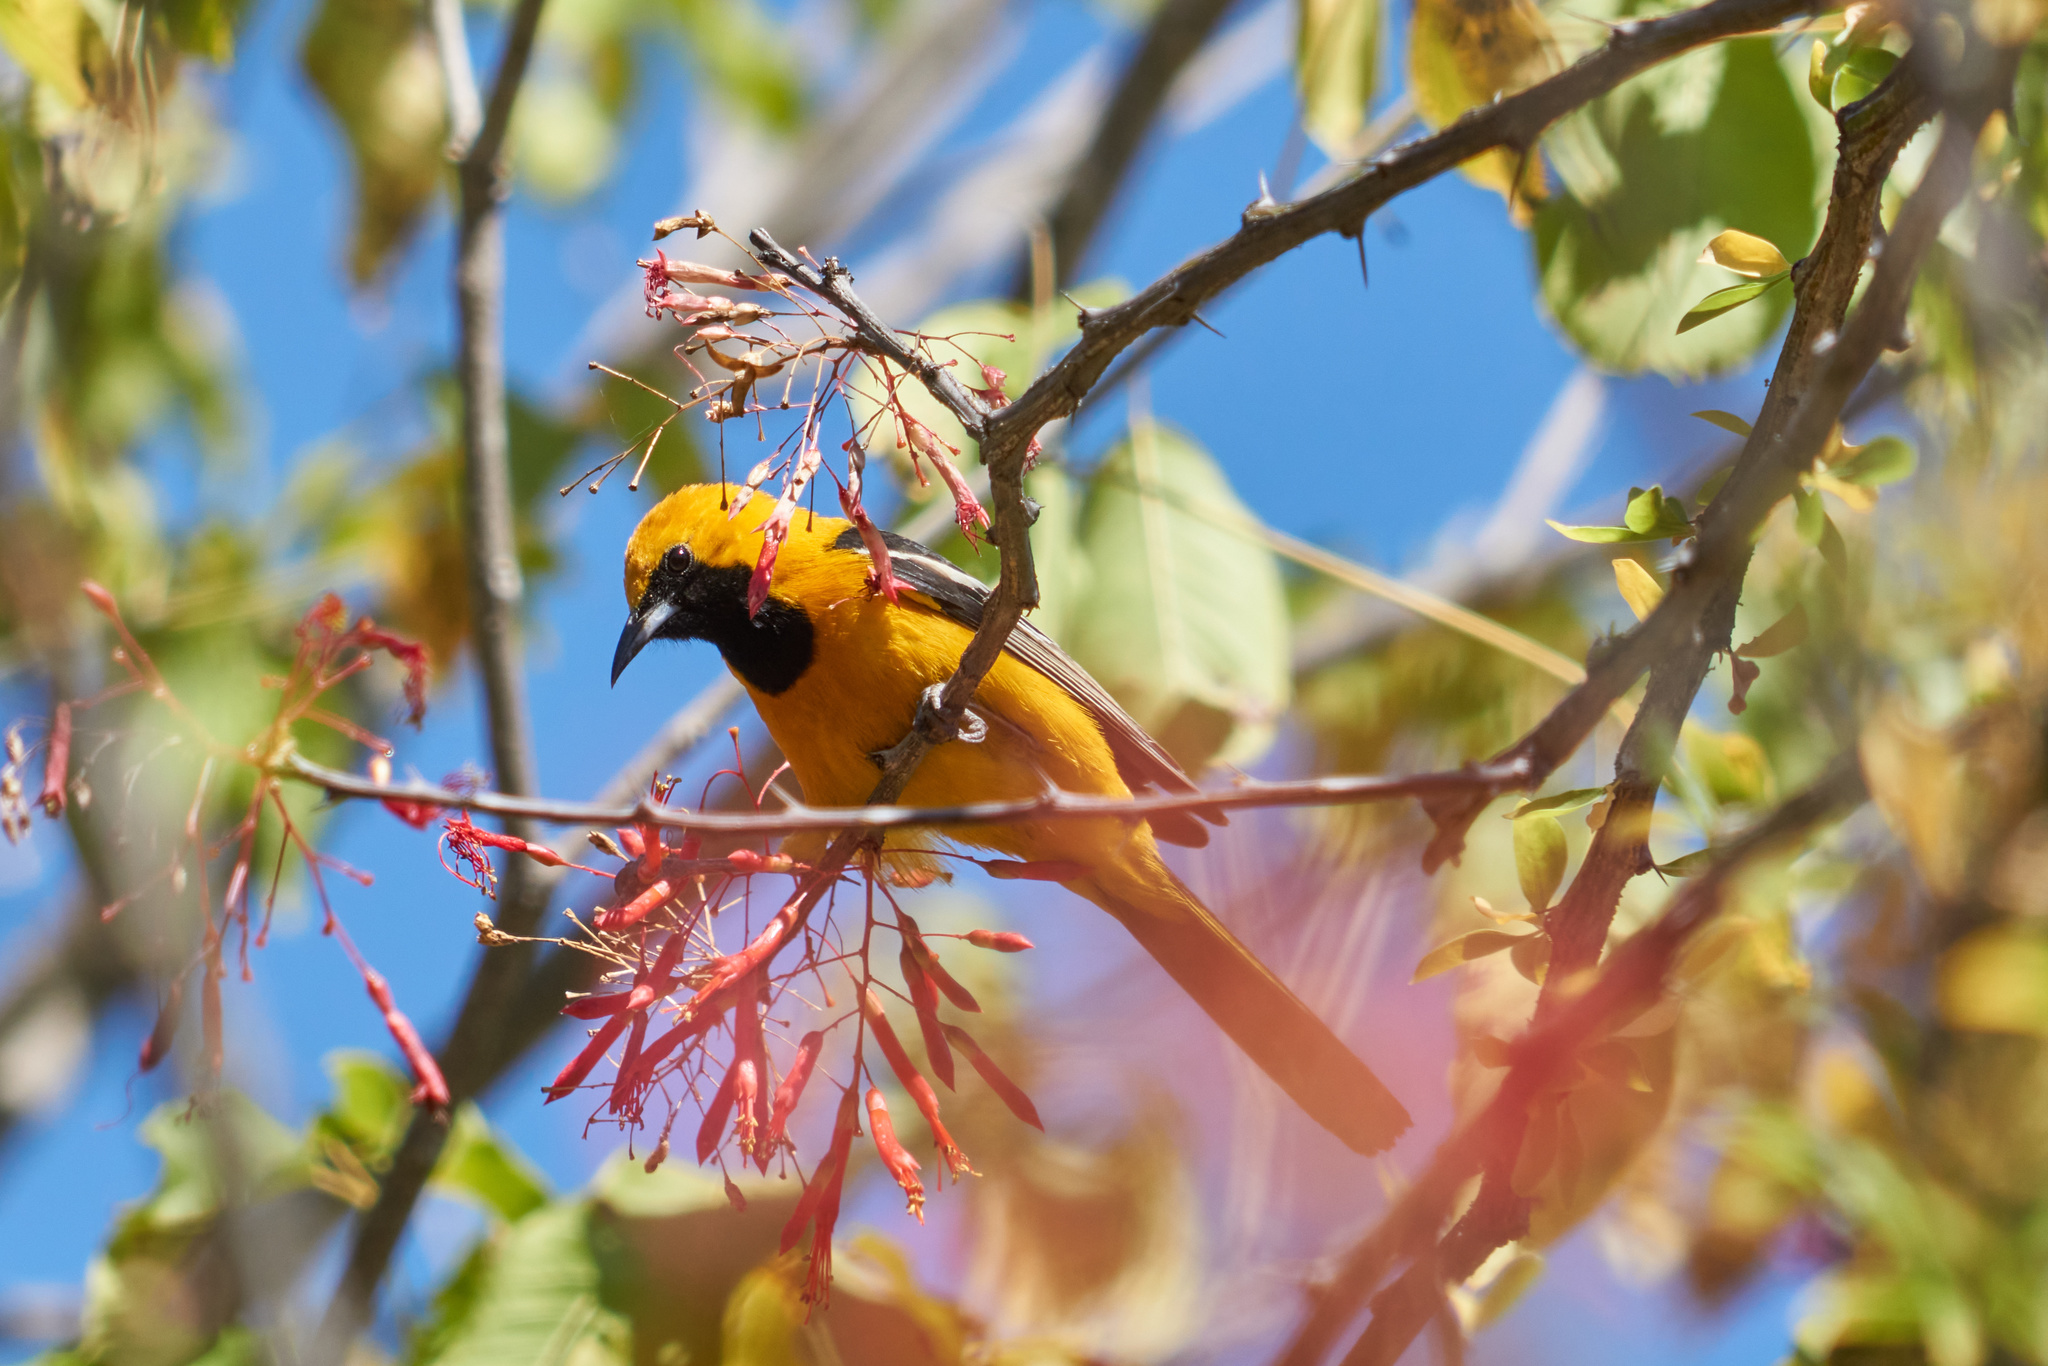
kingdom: Animalia
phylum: Chordata
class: Aves
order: Passeriformes
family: Icteridae
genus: Icterus
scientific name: Icterus cucullatus
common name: Hooded oriole
